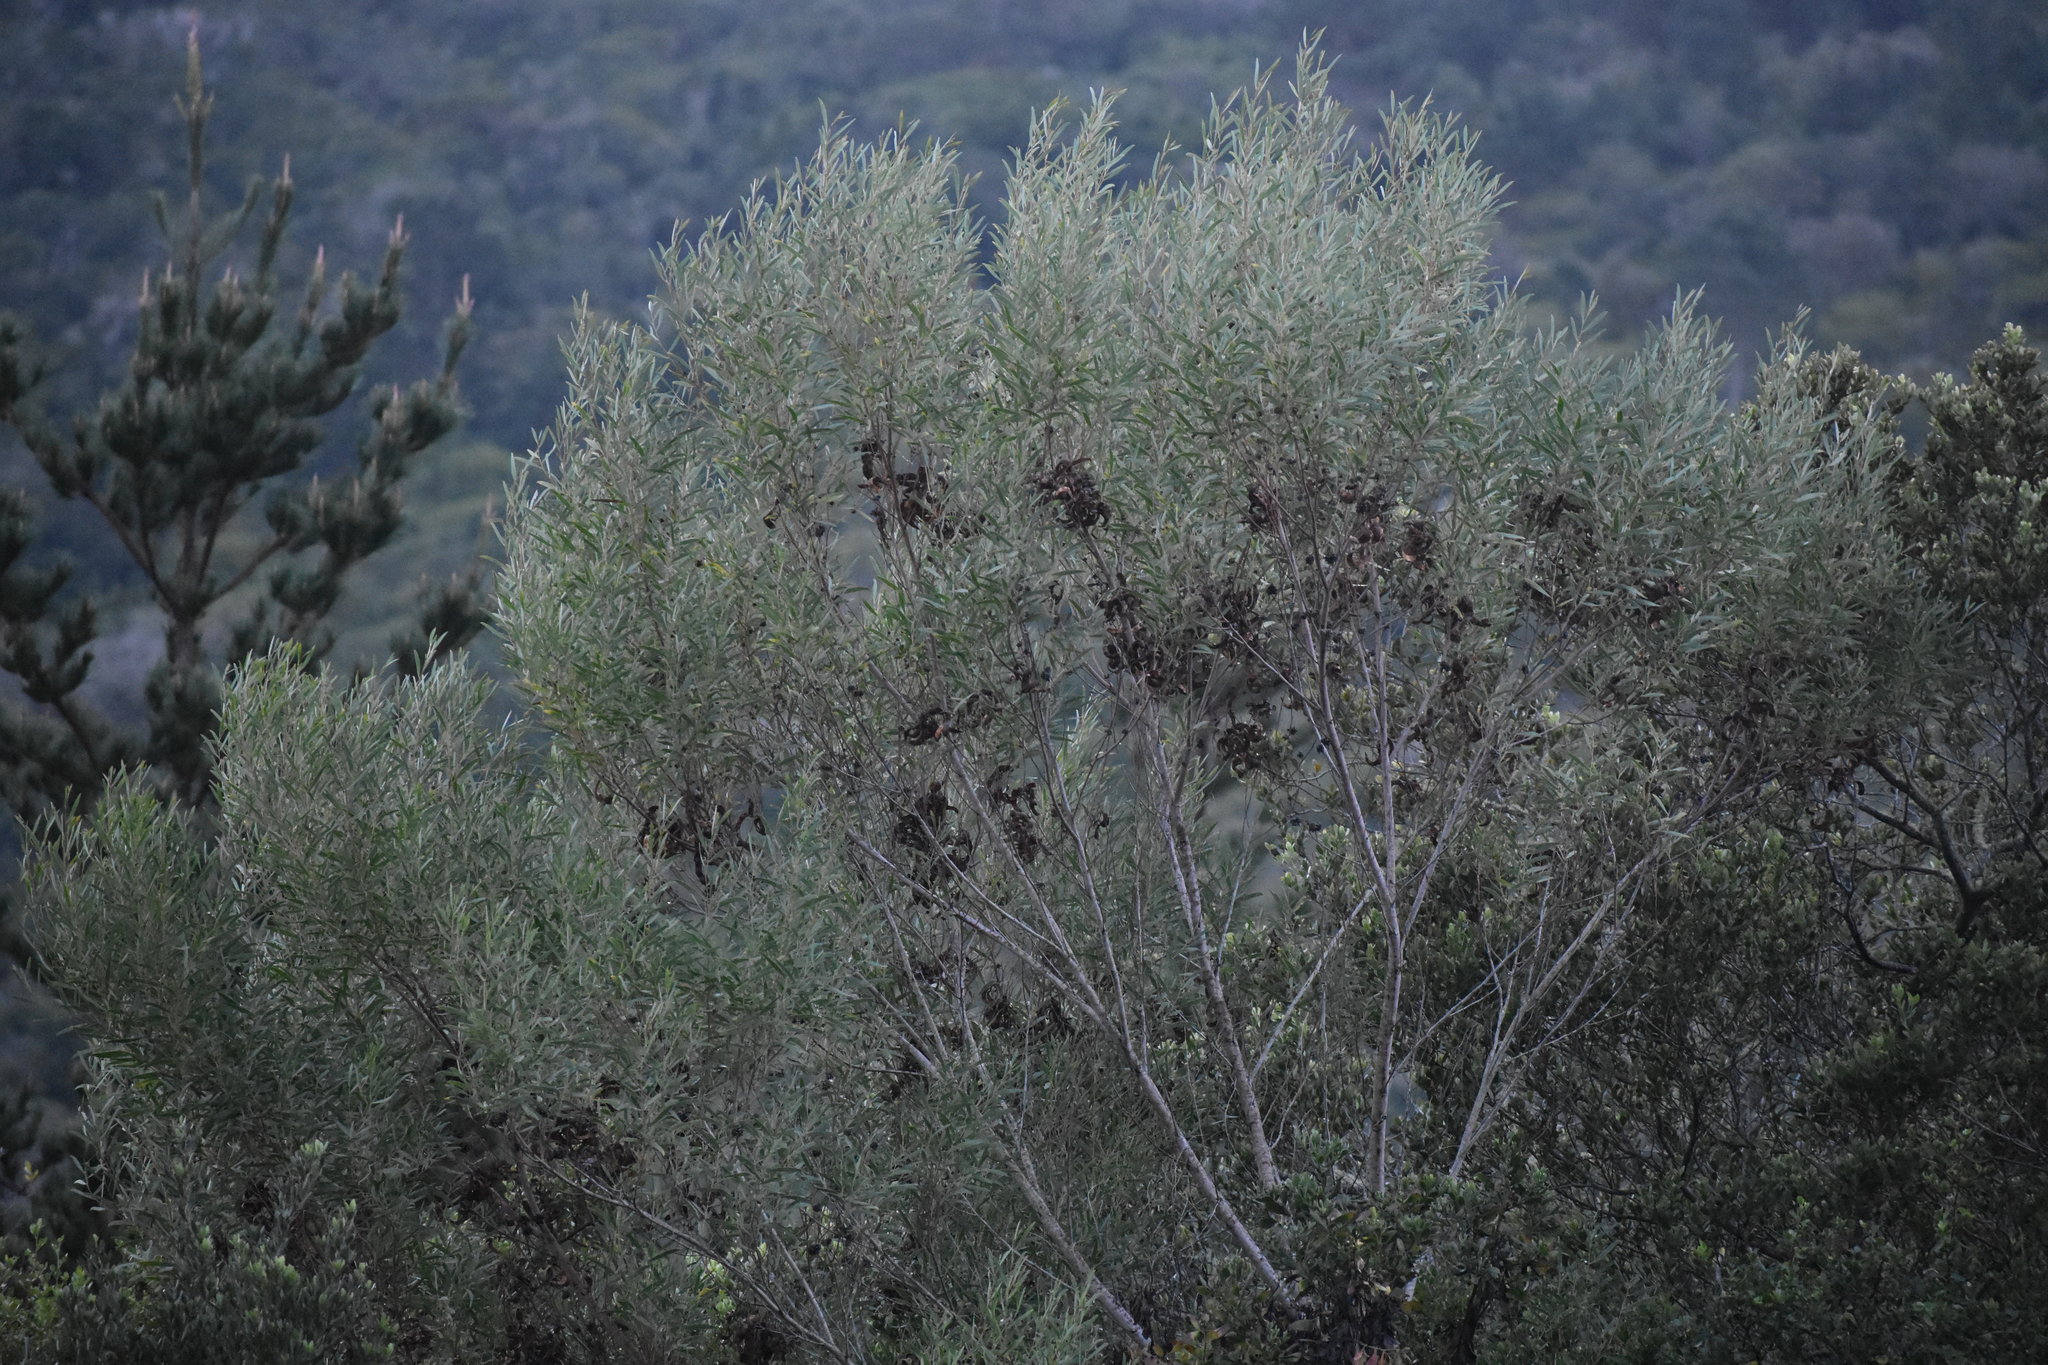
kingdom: Plantae
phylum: Tracheophyta
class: Magnoliopsida
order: Fabales
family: Fabaceae
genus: Acacia
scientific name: Acacia cyclops
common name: Coastal wattle
